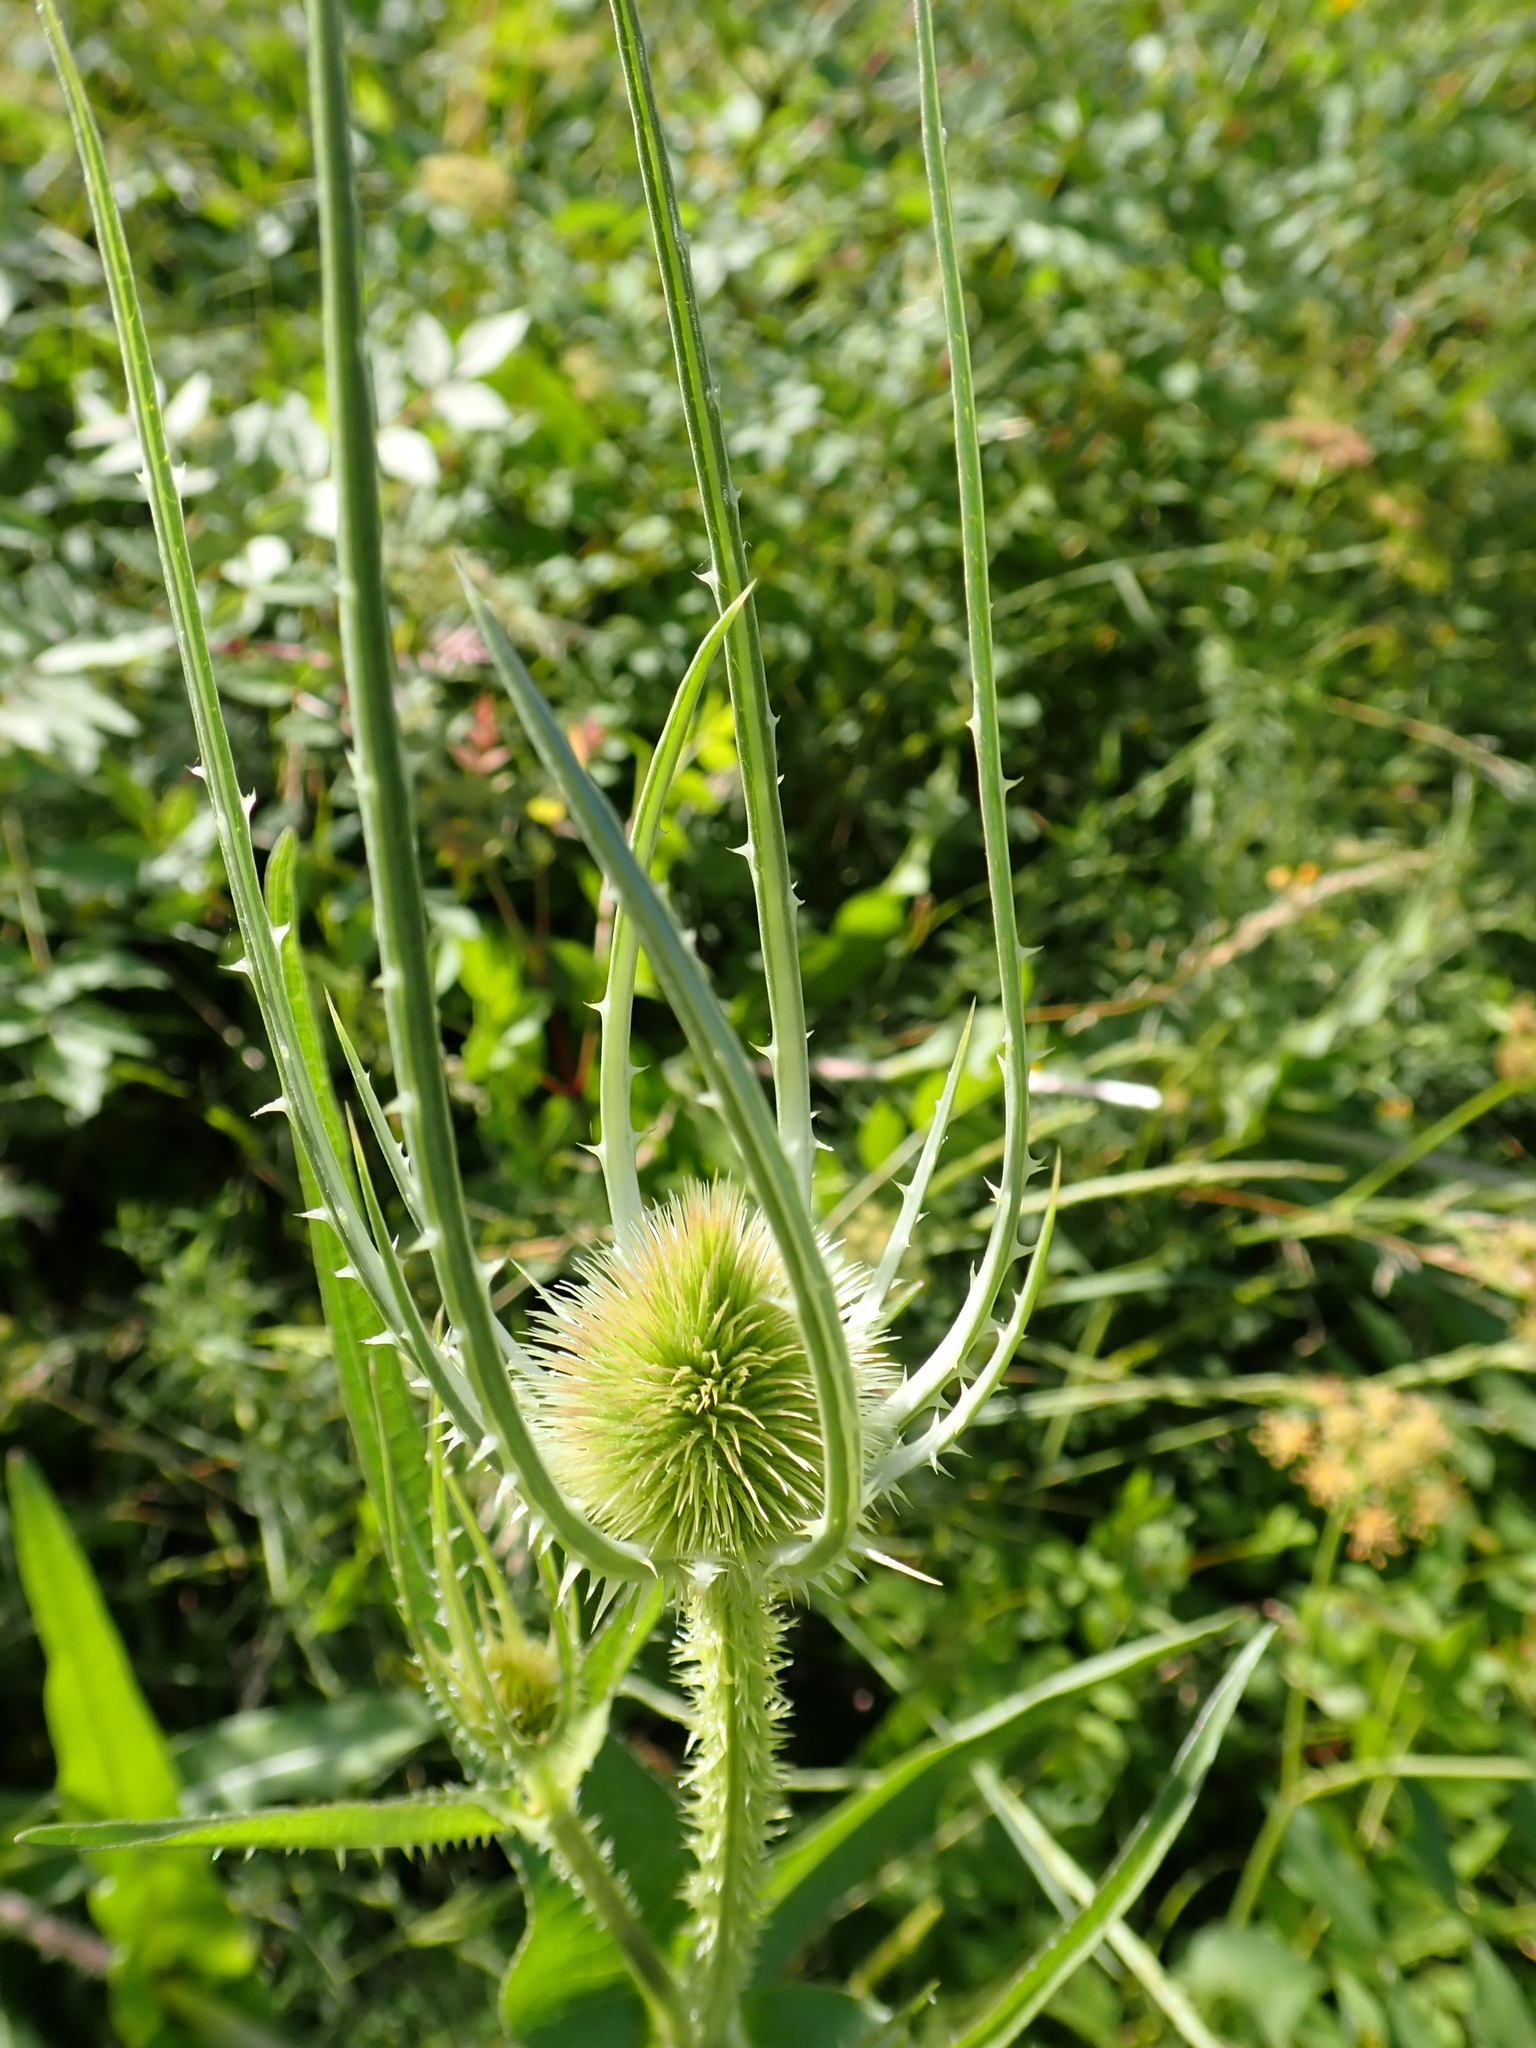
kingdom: Plantae
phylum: Tracheophyta
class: Magnoliopsida
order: Dipsacales
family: Caprifoliaceae
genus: Dipsacus
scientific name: Dipsacus fullonum
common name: Teasel
